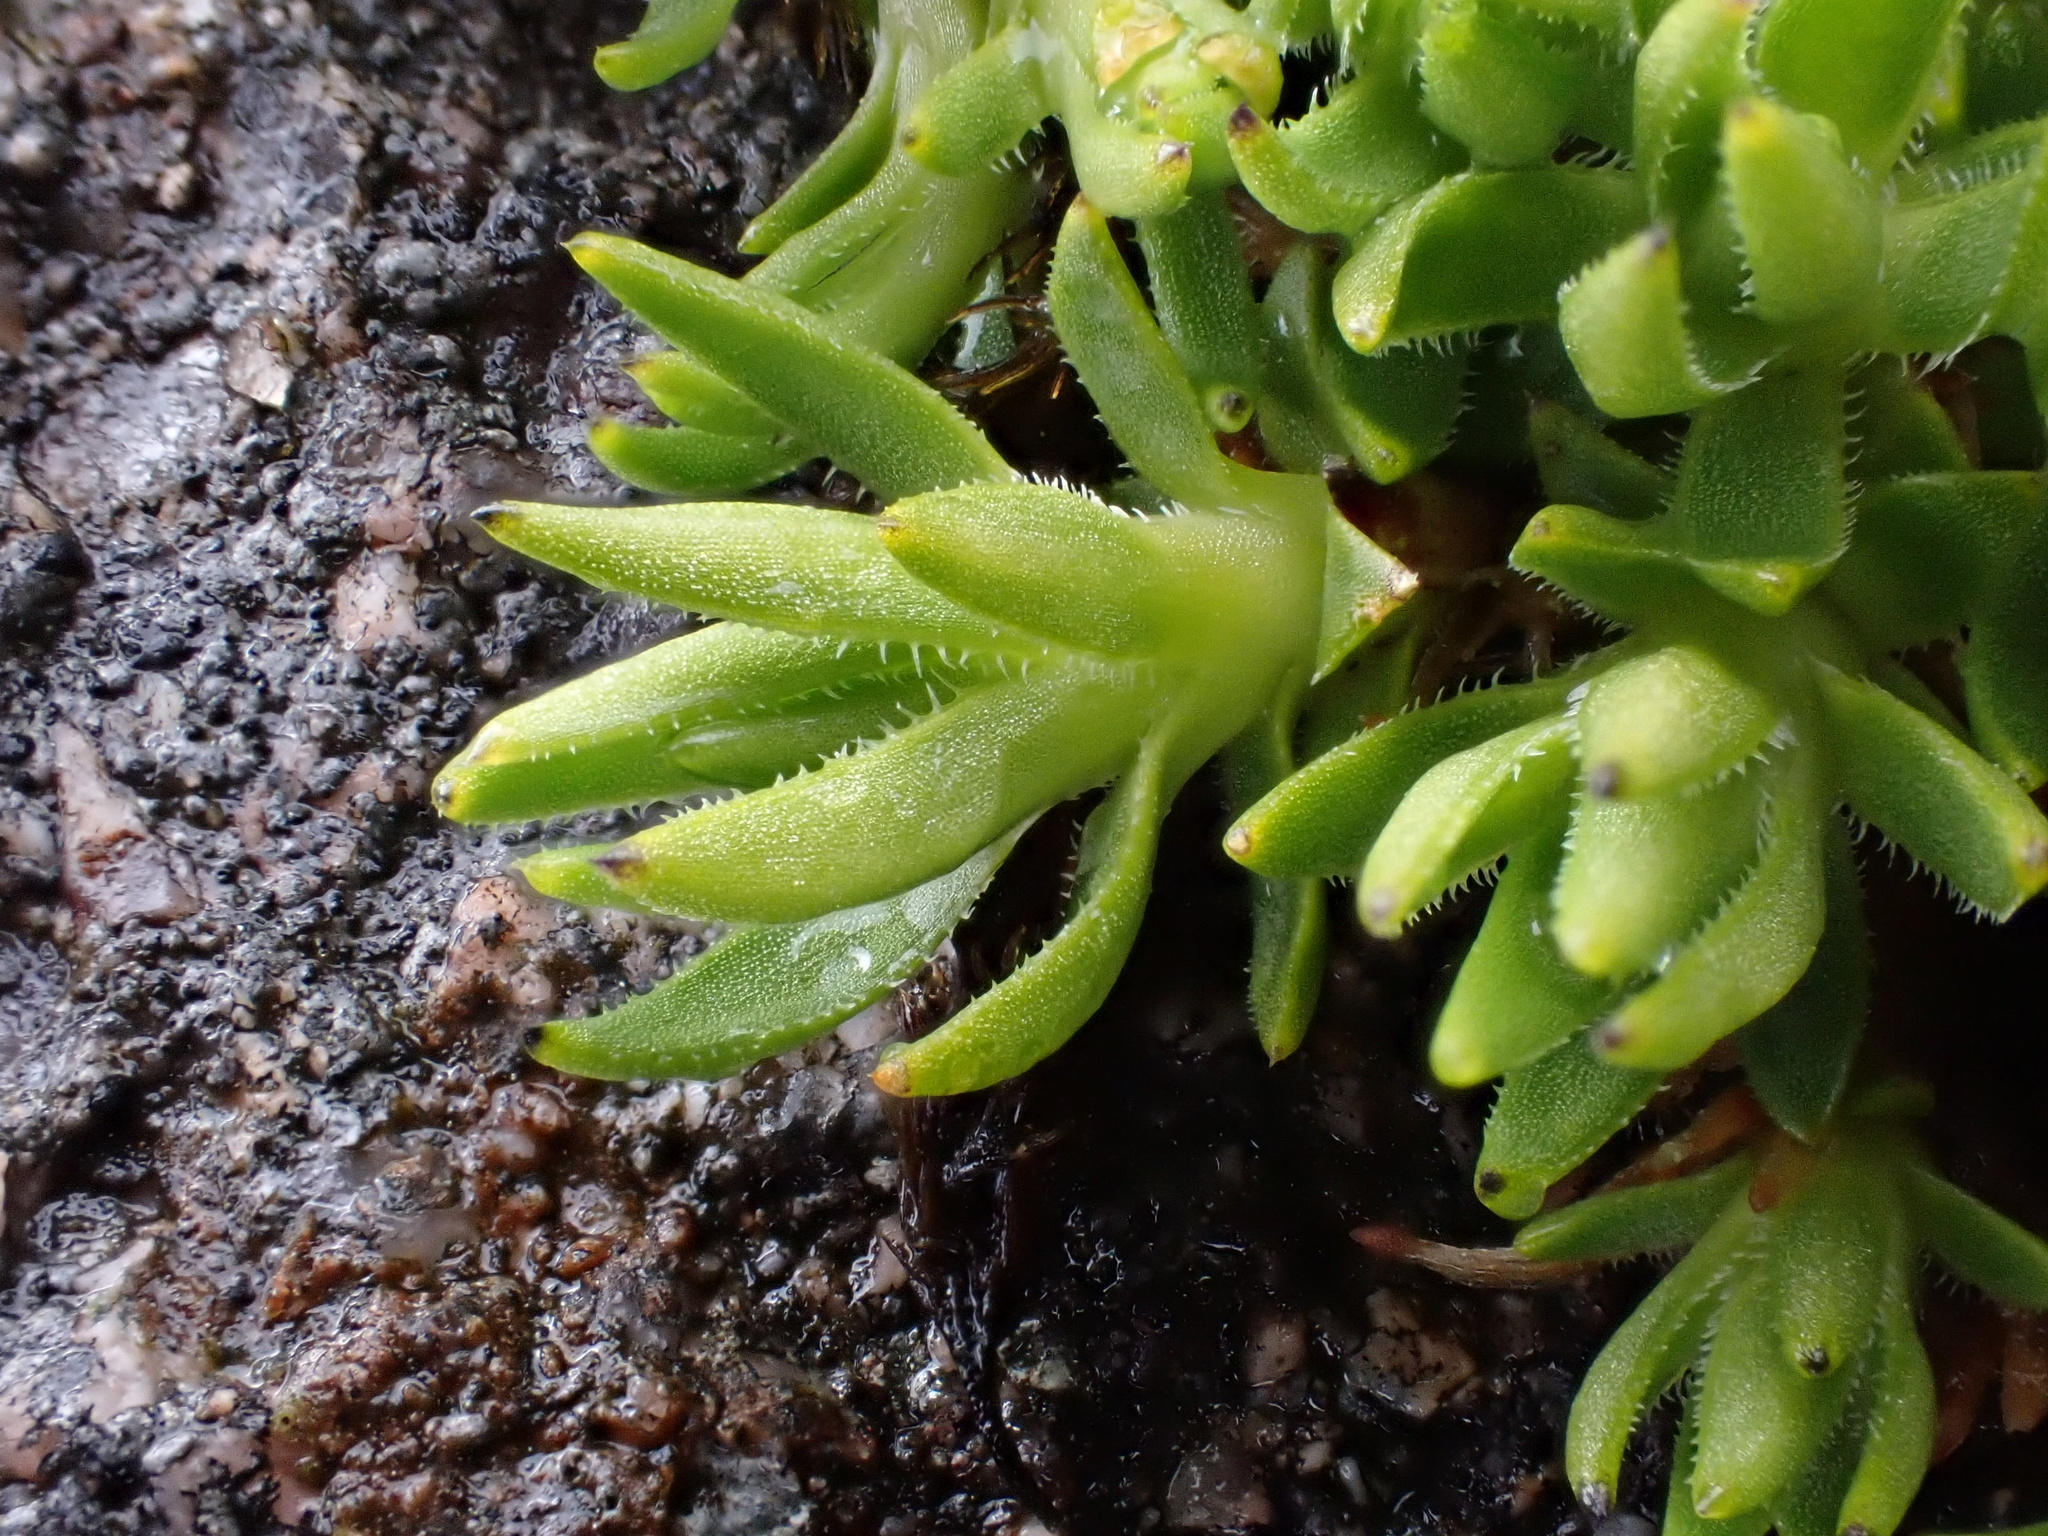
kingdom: Plantae
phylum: Tracheophyta
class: Magnoliopsida
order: Caryophyllales
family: Caryophyllaceae
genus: Silene
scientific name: Silene acaulis
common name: Moss campion
